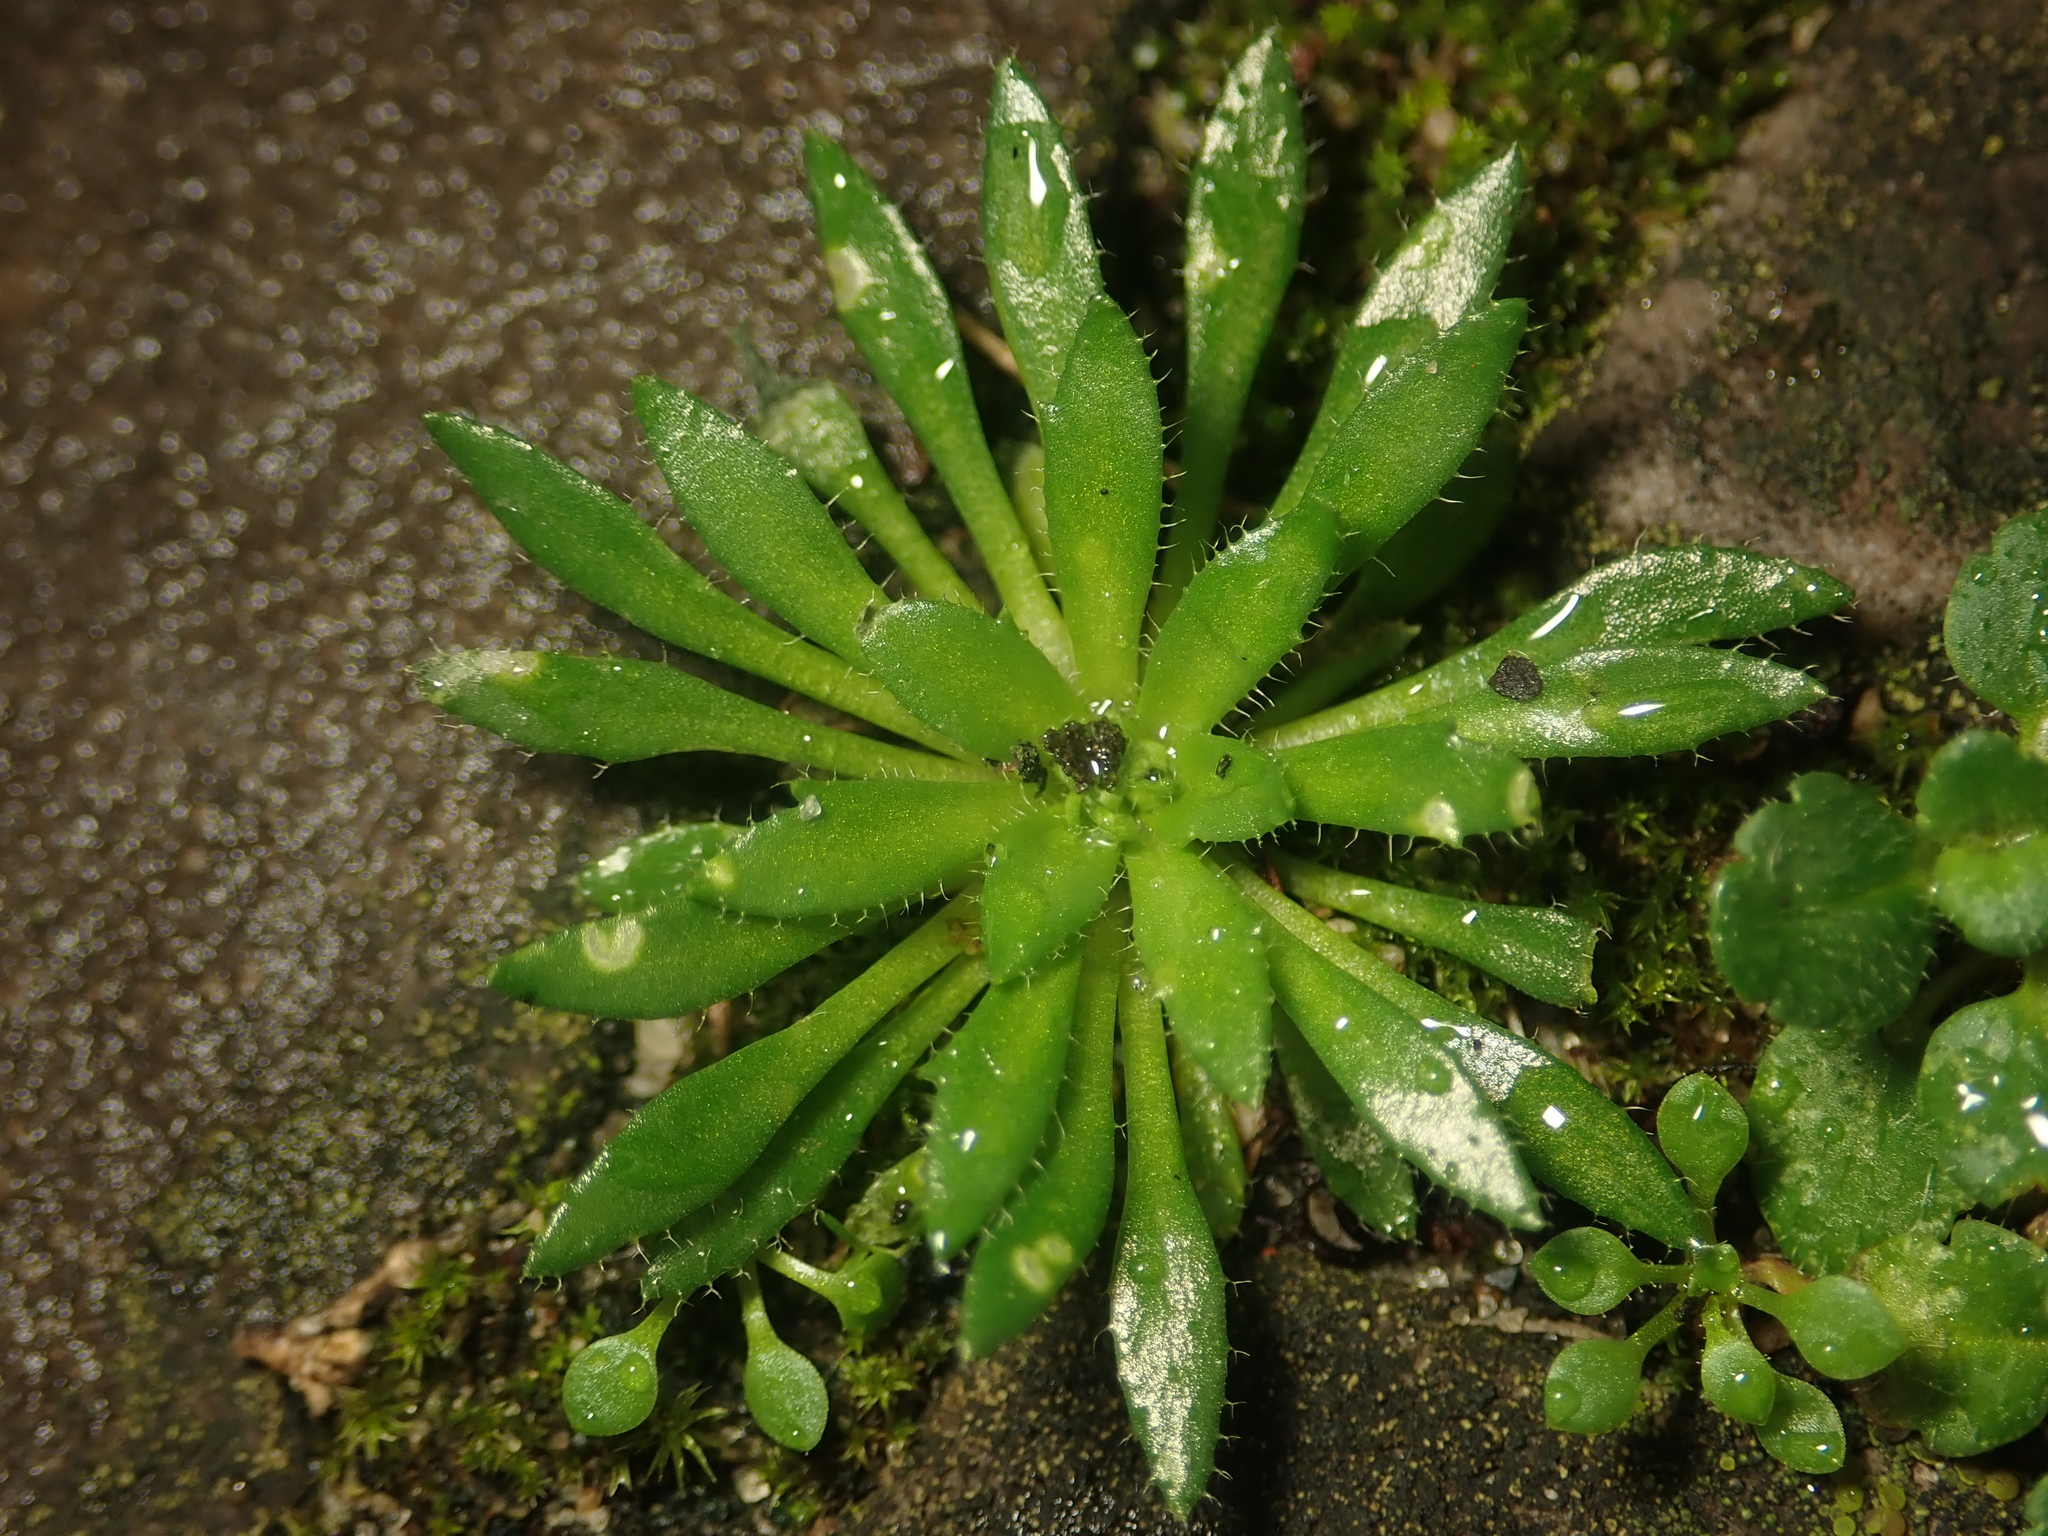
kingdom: Plantae
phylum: Tracheophyta
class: Magnoliopsida
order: Brassicales
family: Brassicaceae
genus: Draba
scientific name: Draba verna
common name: Spring draba
